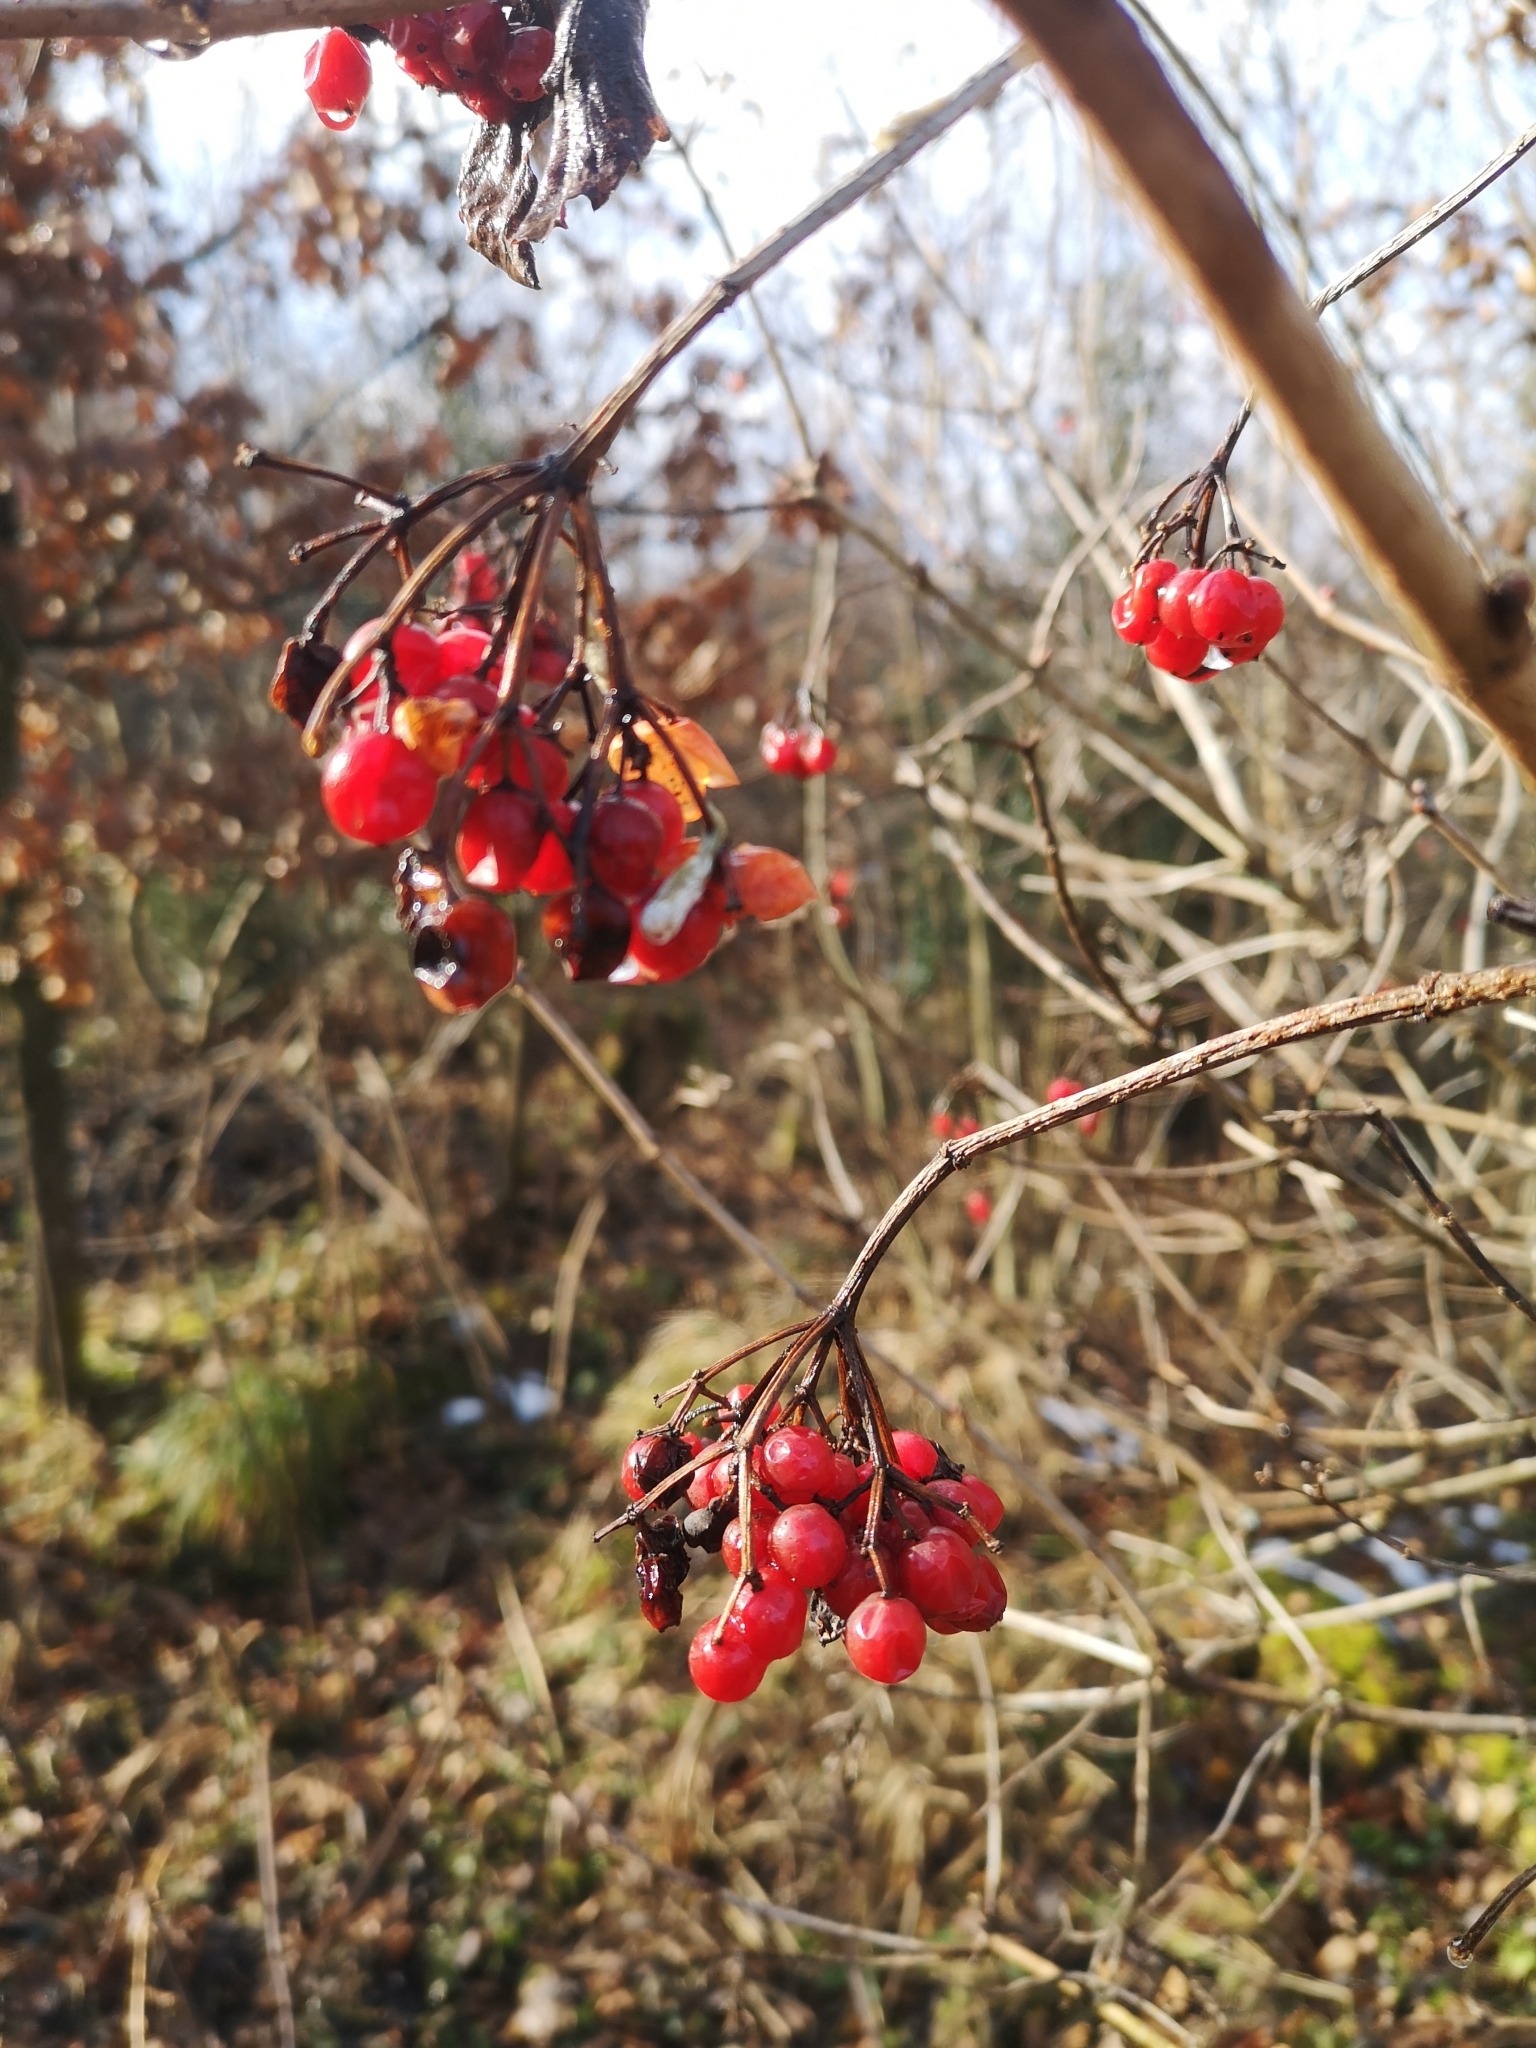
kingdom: Plantae
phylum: Tracheophyta
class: Magnoliopsida
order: Dipsacales
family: Viburnaceae
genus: Viburnum
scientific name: Viburnum opulus
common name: Guelder-rose
